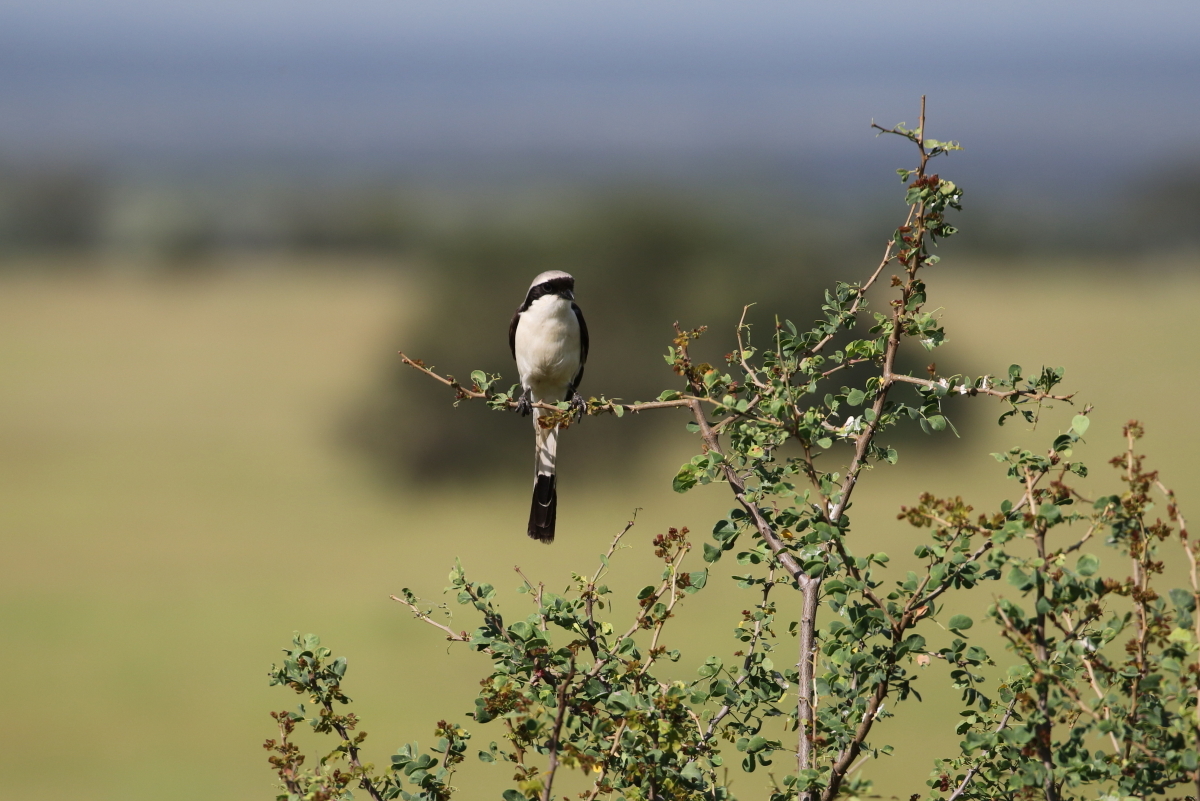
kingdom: Animalia
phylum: Chordata
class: Aves
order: Passeriformes
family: Laniidae
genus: Lanius
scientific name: Lanius excubitoroides
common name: Grey-backed fiscal
